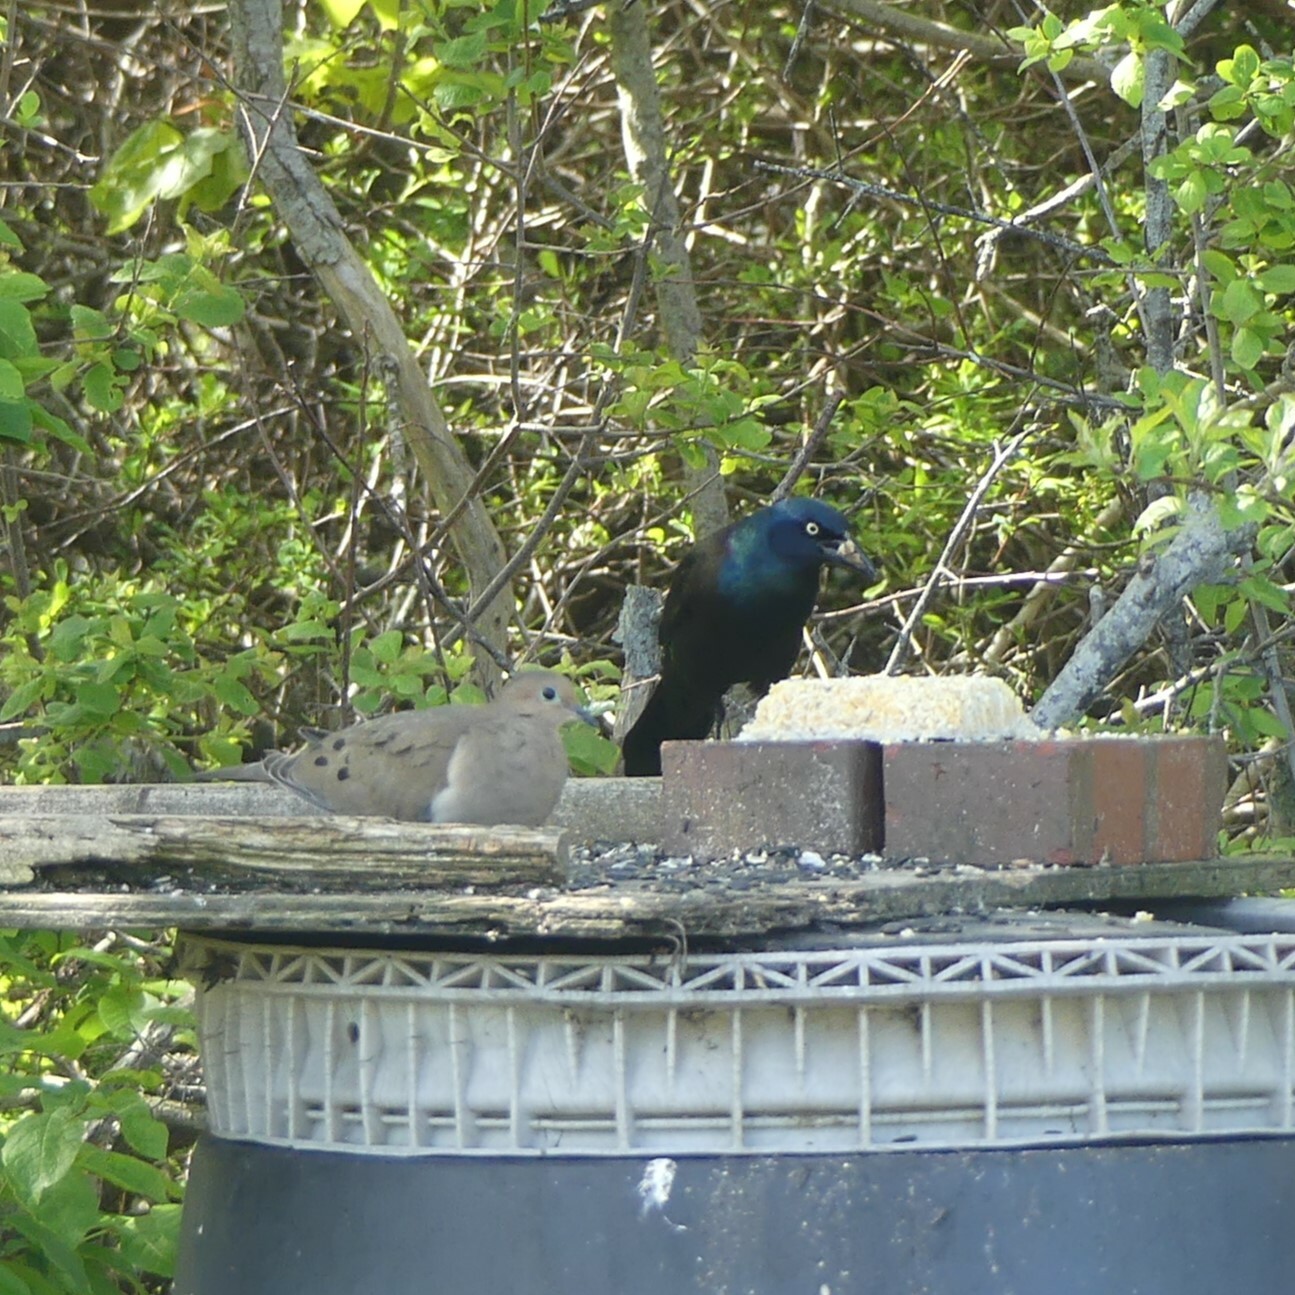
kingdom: Animalia
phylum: Chordata
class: Aves
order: Columbiformes
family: Columbidae
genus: Zenaida
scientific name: Zenaida macroura
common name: Mourning dove
